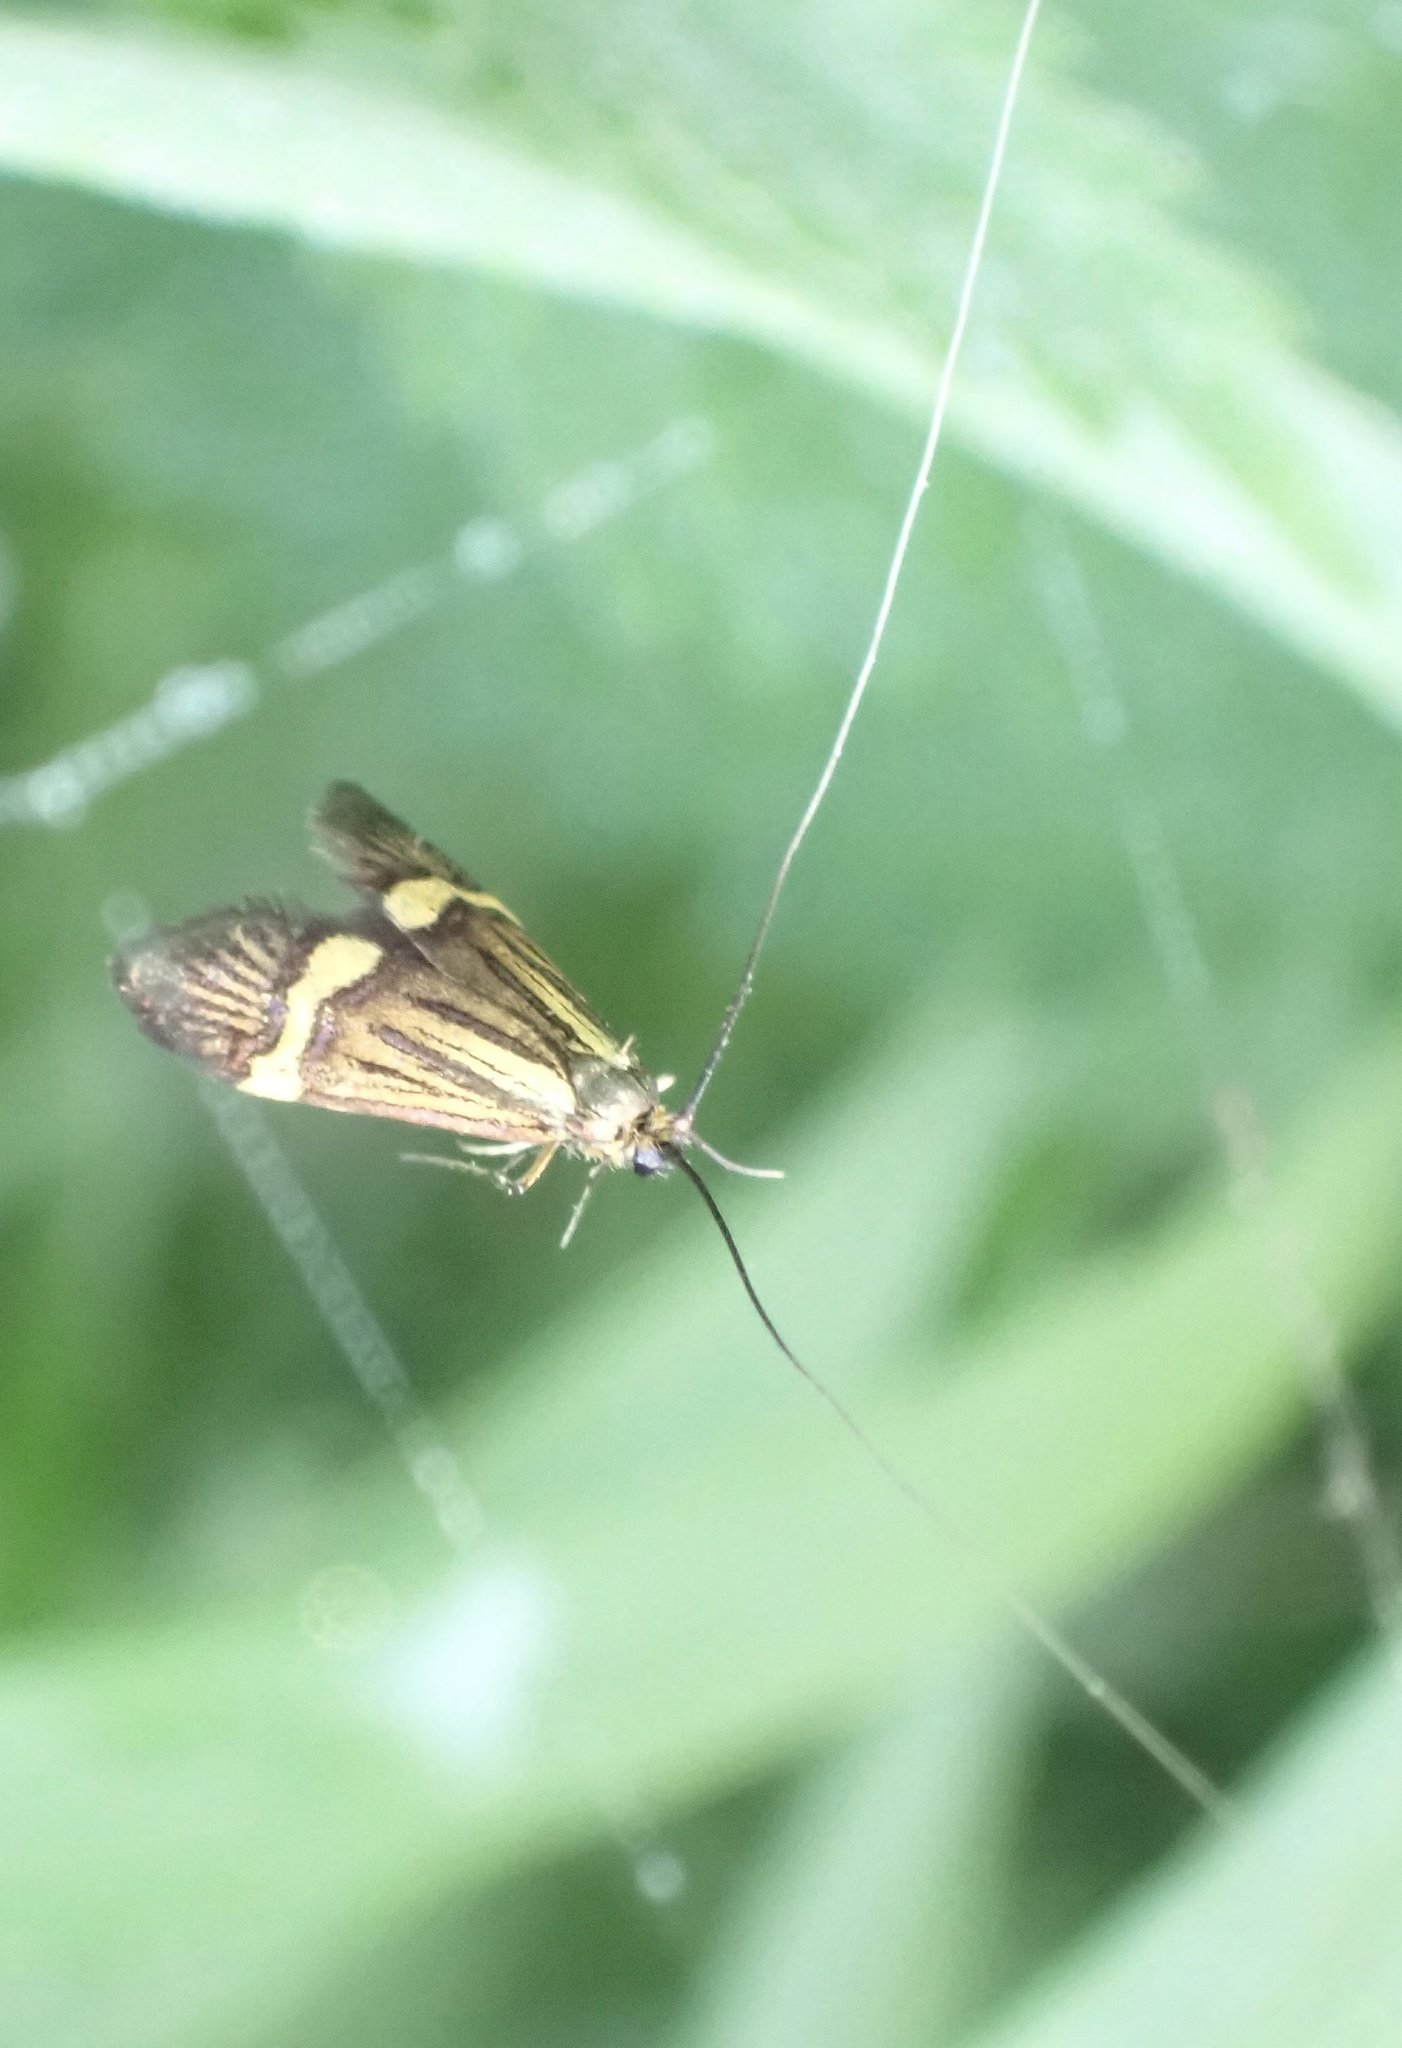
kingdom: Animalia
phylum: Arthropoda
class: Insecta
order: Lepidoptera
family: Adelidae
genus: Nemophora
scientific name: Nemophora degeerella
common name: Yellow-barred long-horn
